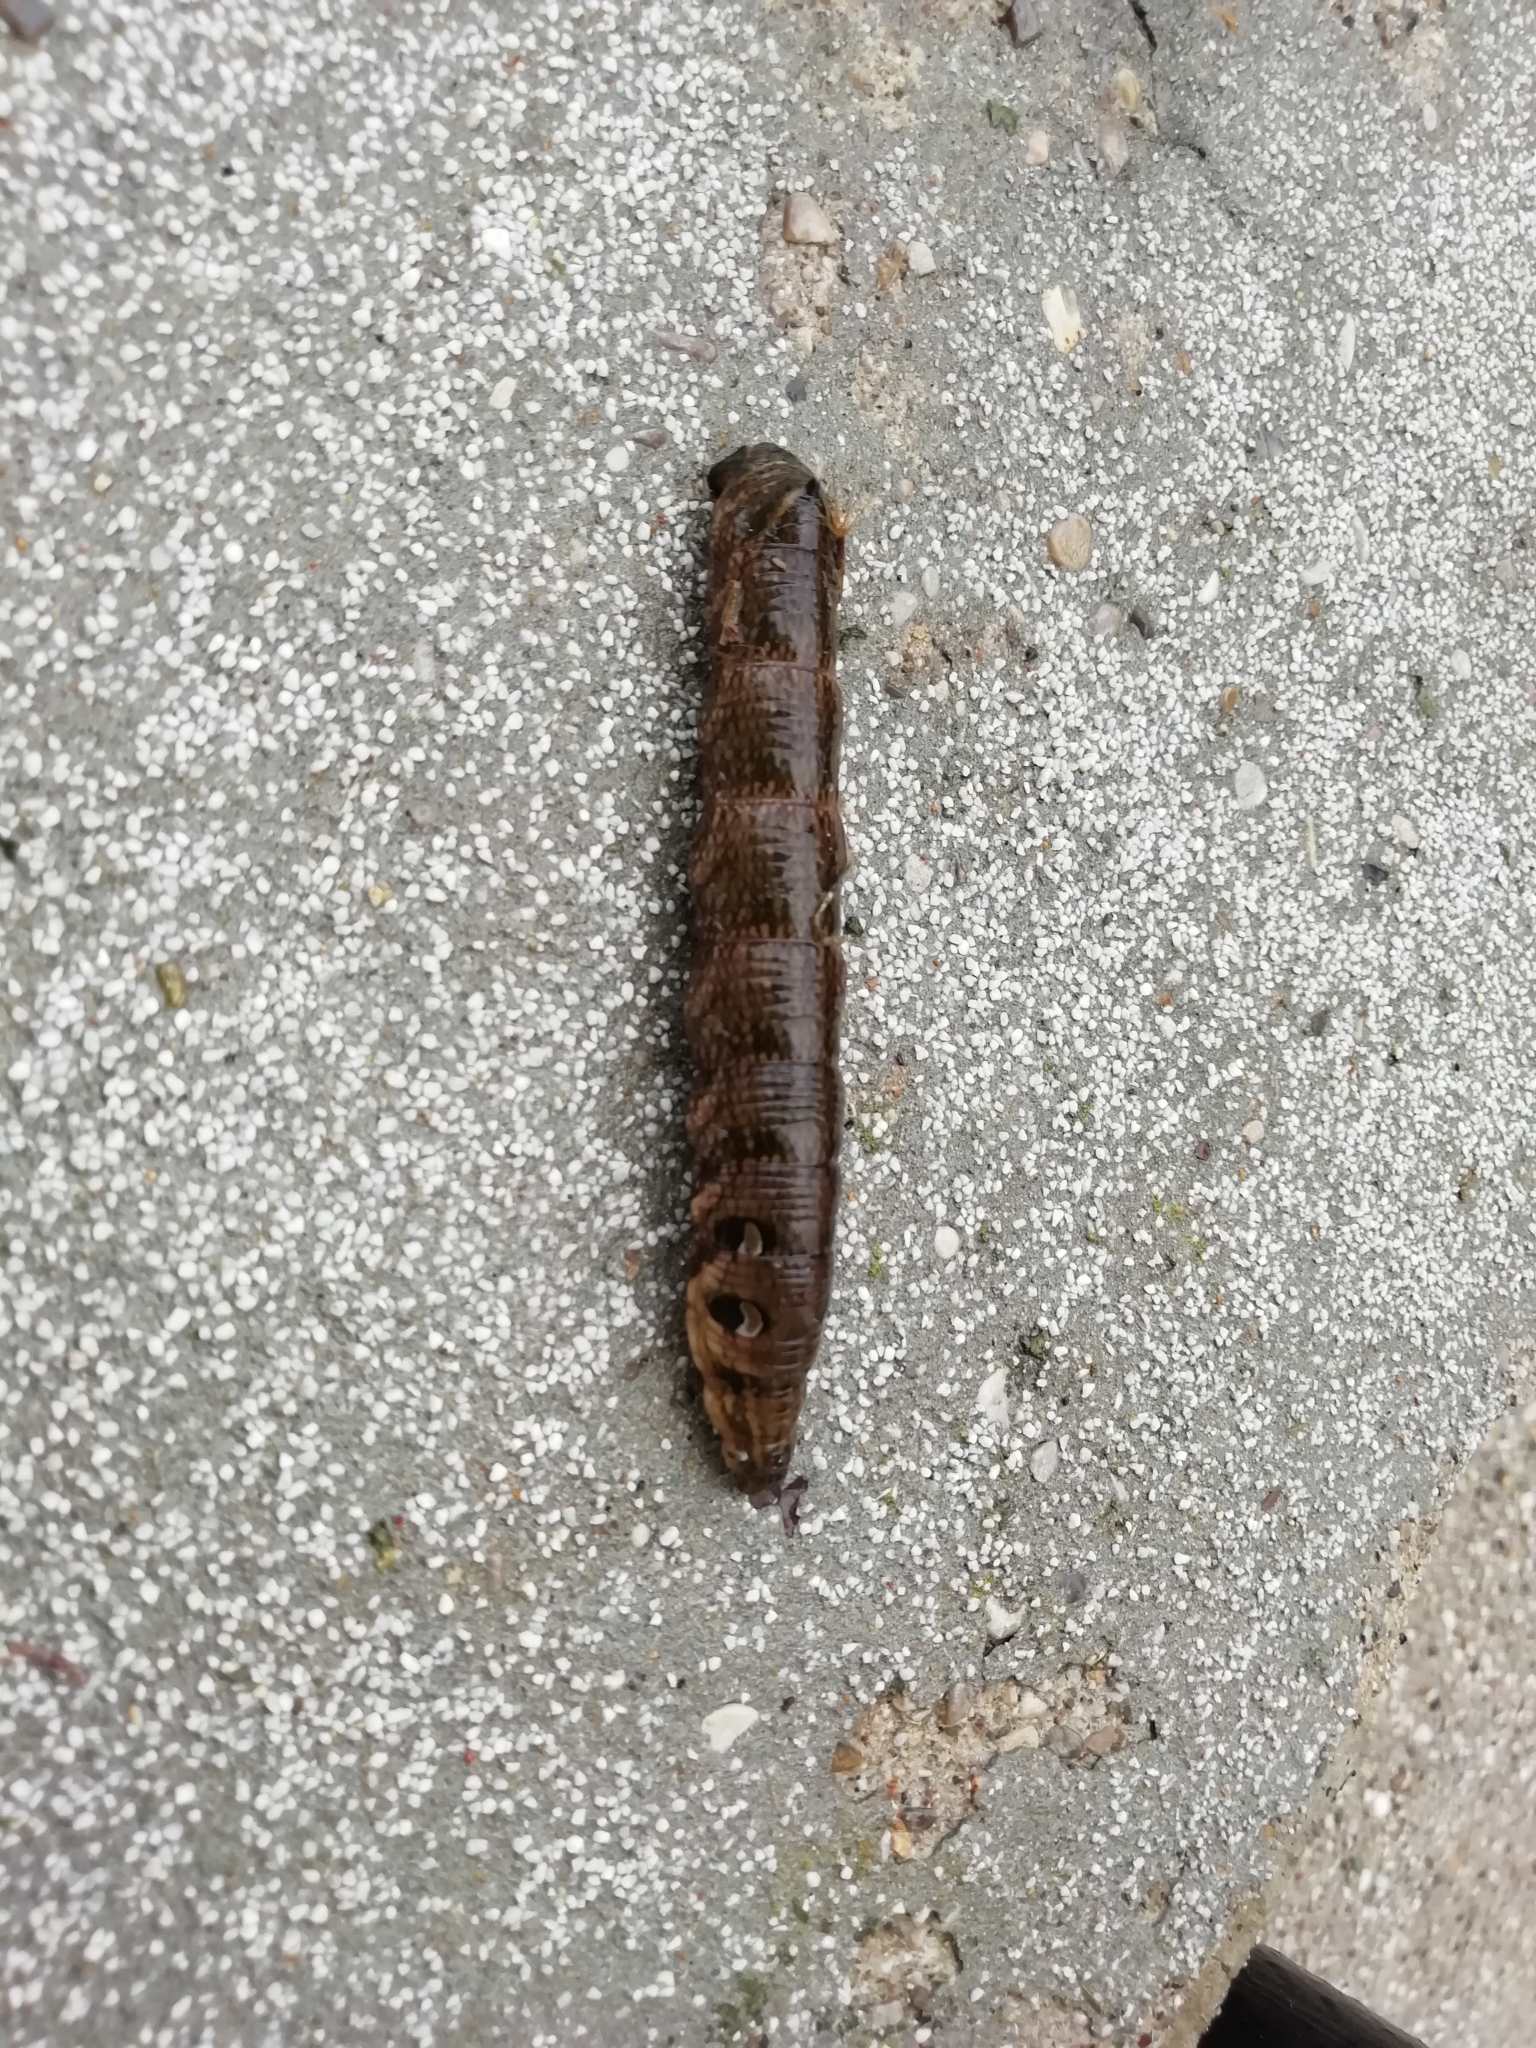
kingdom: Animalia
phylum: Arthropoda
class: Insecta
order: Lepidoptera
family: Sphingidae
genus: Deilephila
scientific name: Deilephila elpenor
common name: Elephant hawk-moth
